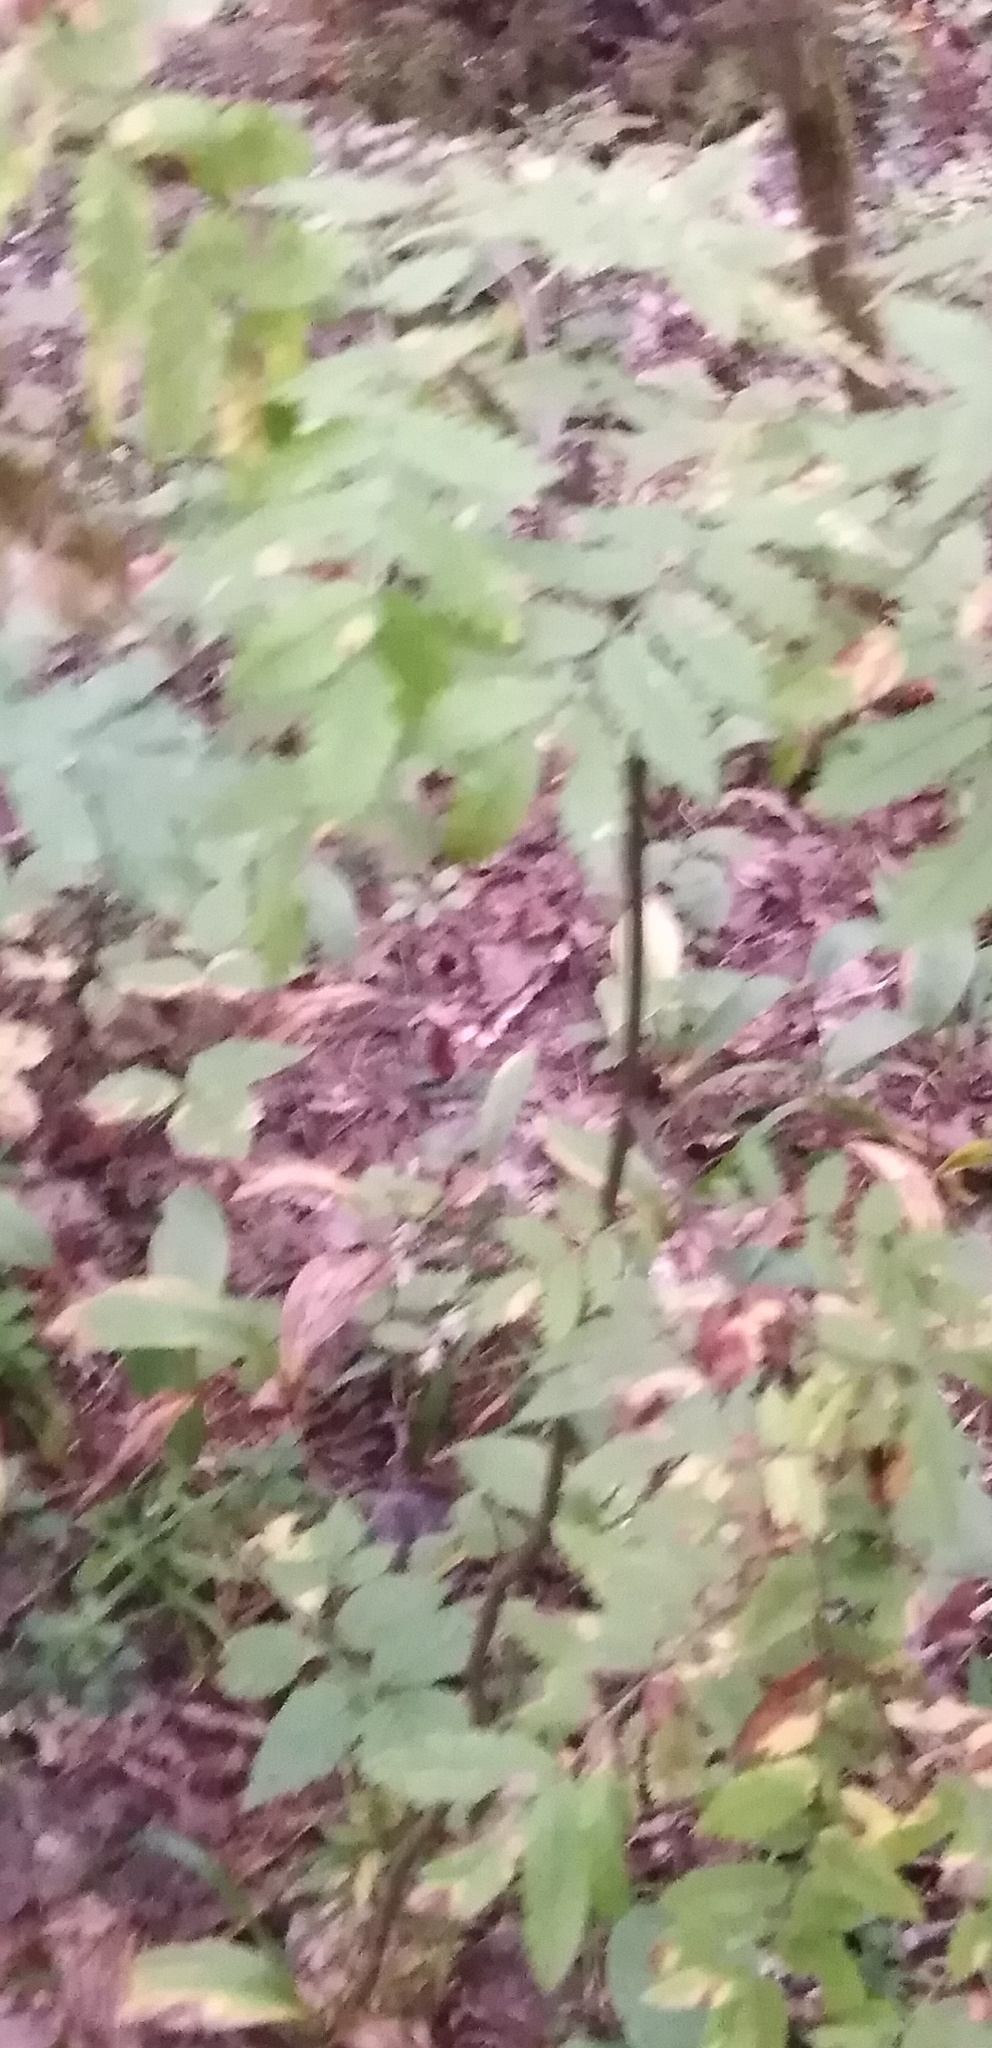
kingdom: Plantae
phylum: Tracheophyta
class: Magnoliopsida
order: Rosales
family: Rosaceae
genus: Sorbus
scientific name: Sorbus aucuparia
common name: Rowan
